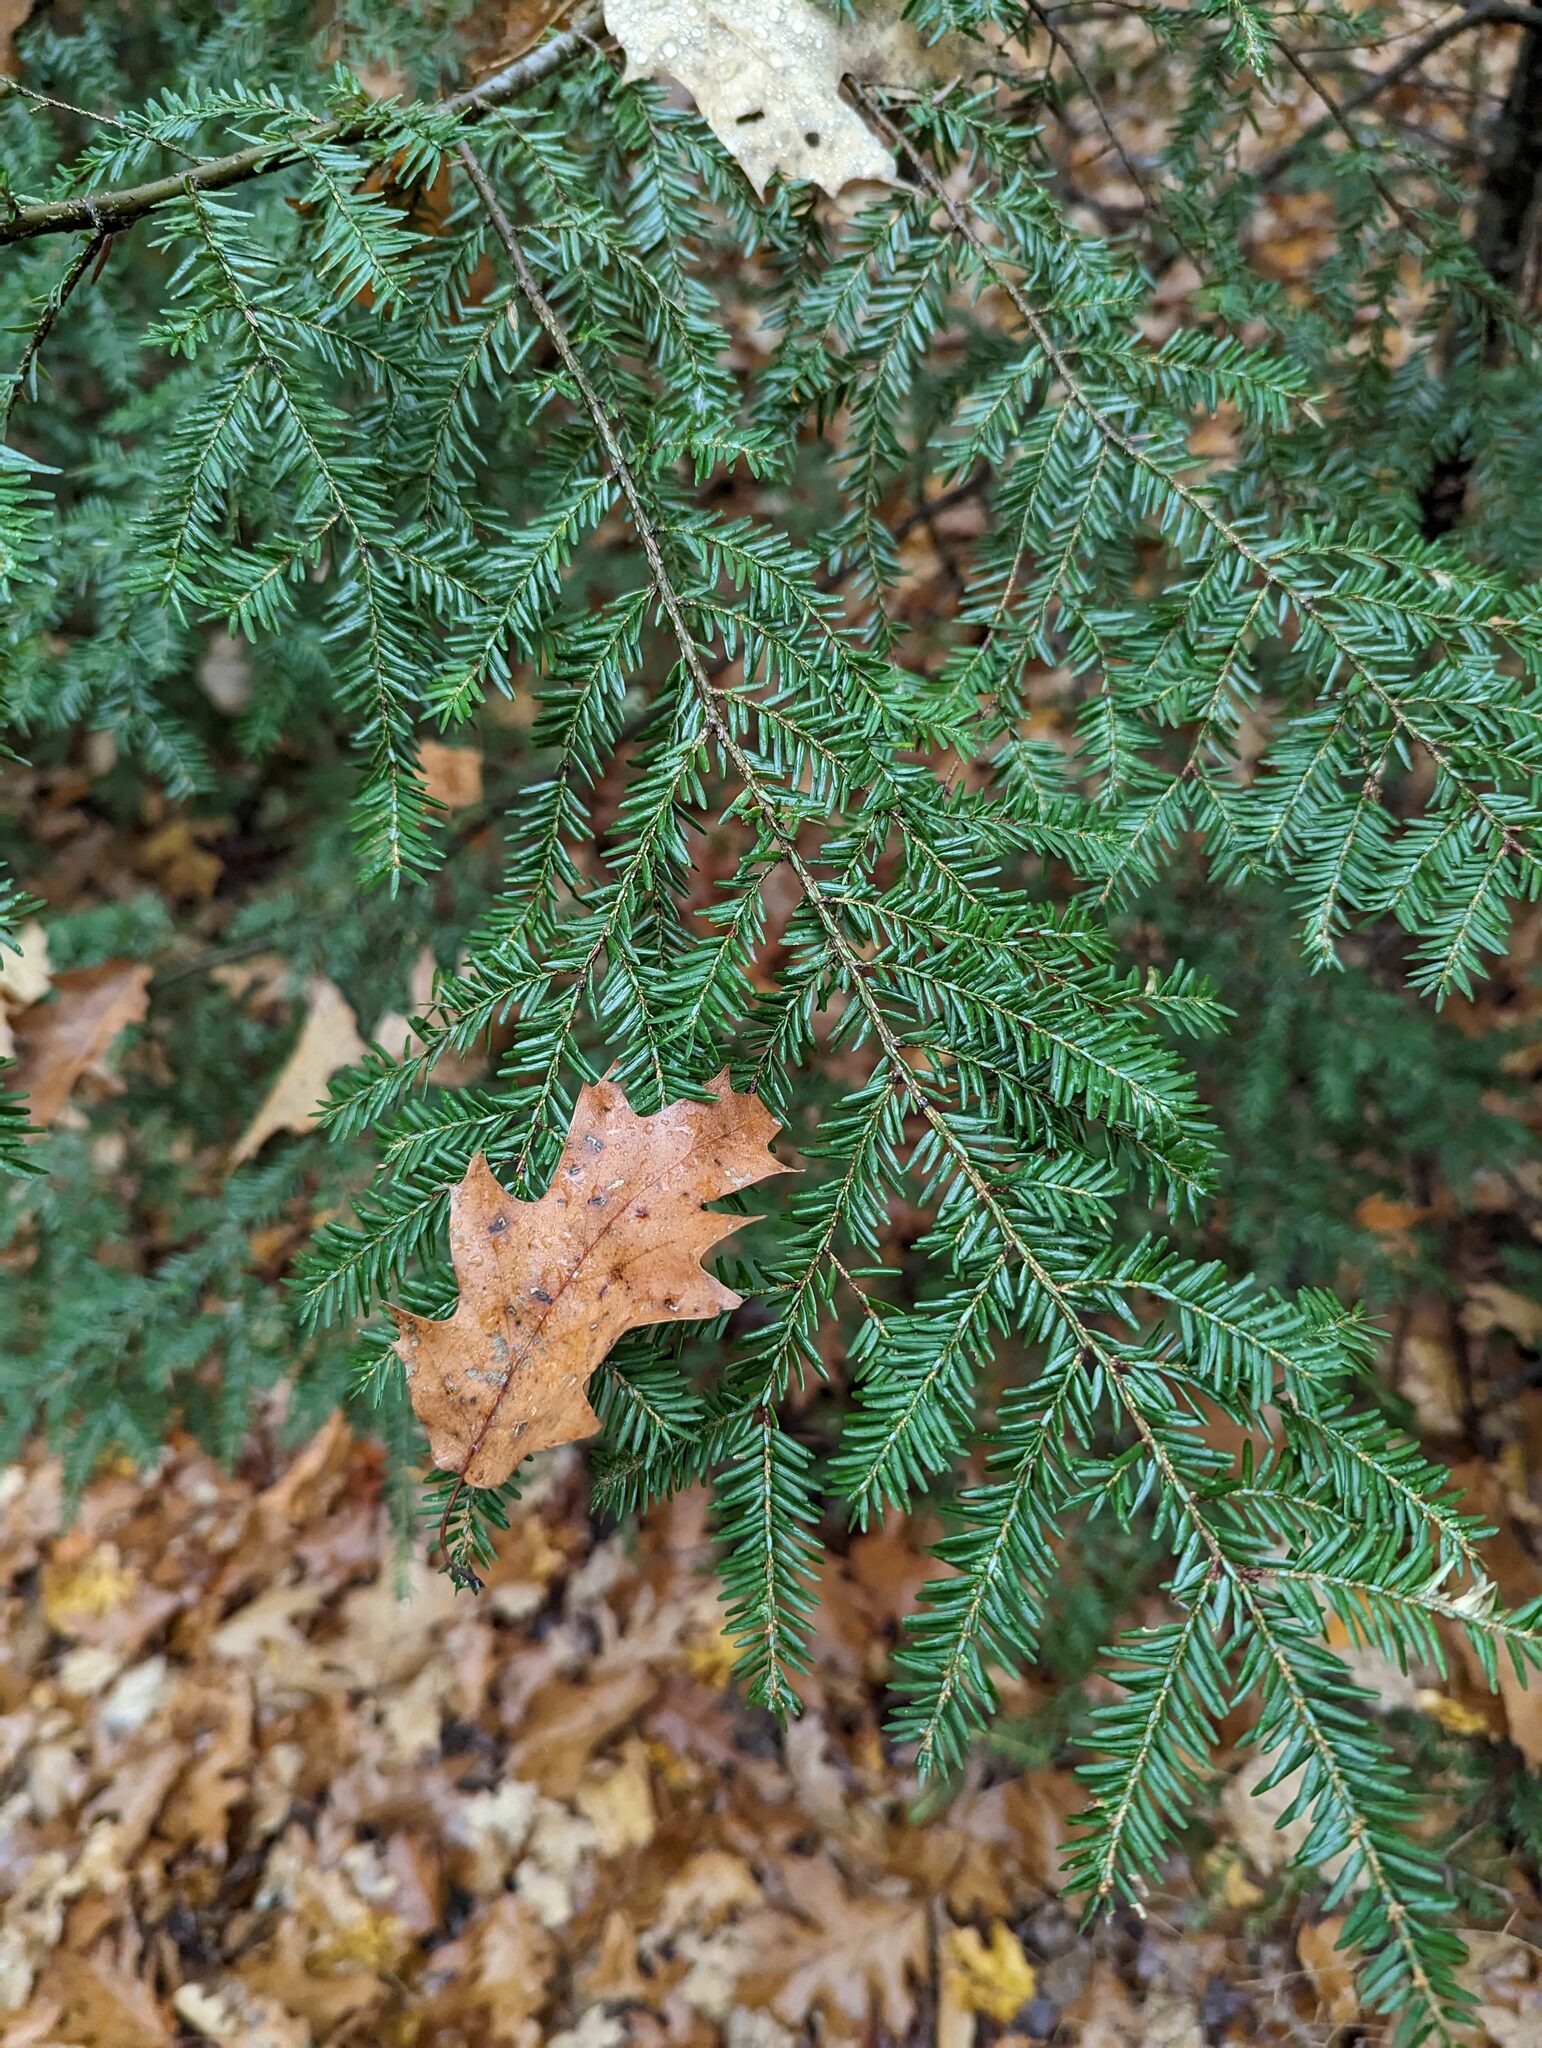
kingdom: Plantae
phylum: Tracheophyta
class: Pinopsida
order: Pinales
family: Pinaceae
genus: Tsuga
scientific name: Tsuga canadensis
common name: Eastern hemlock
